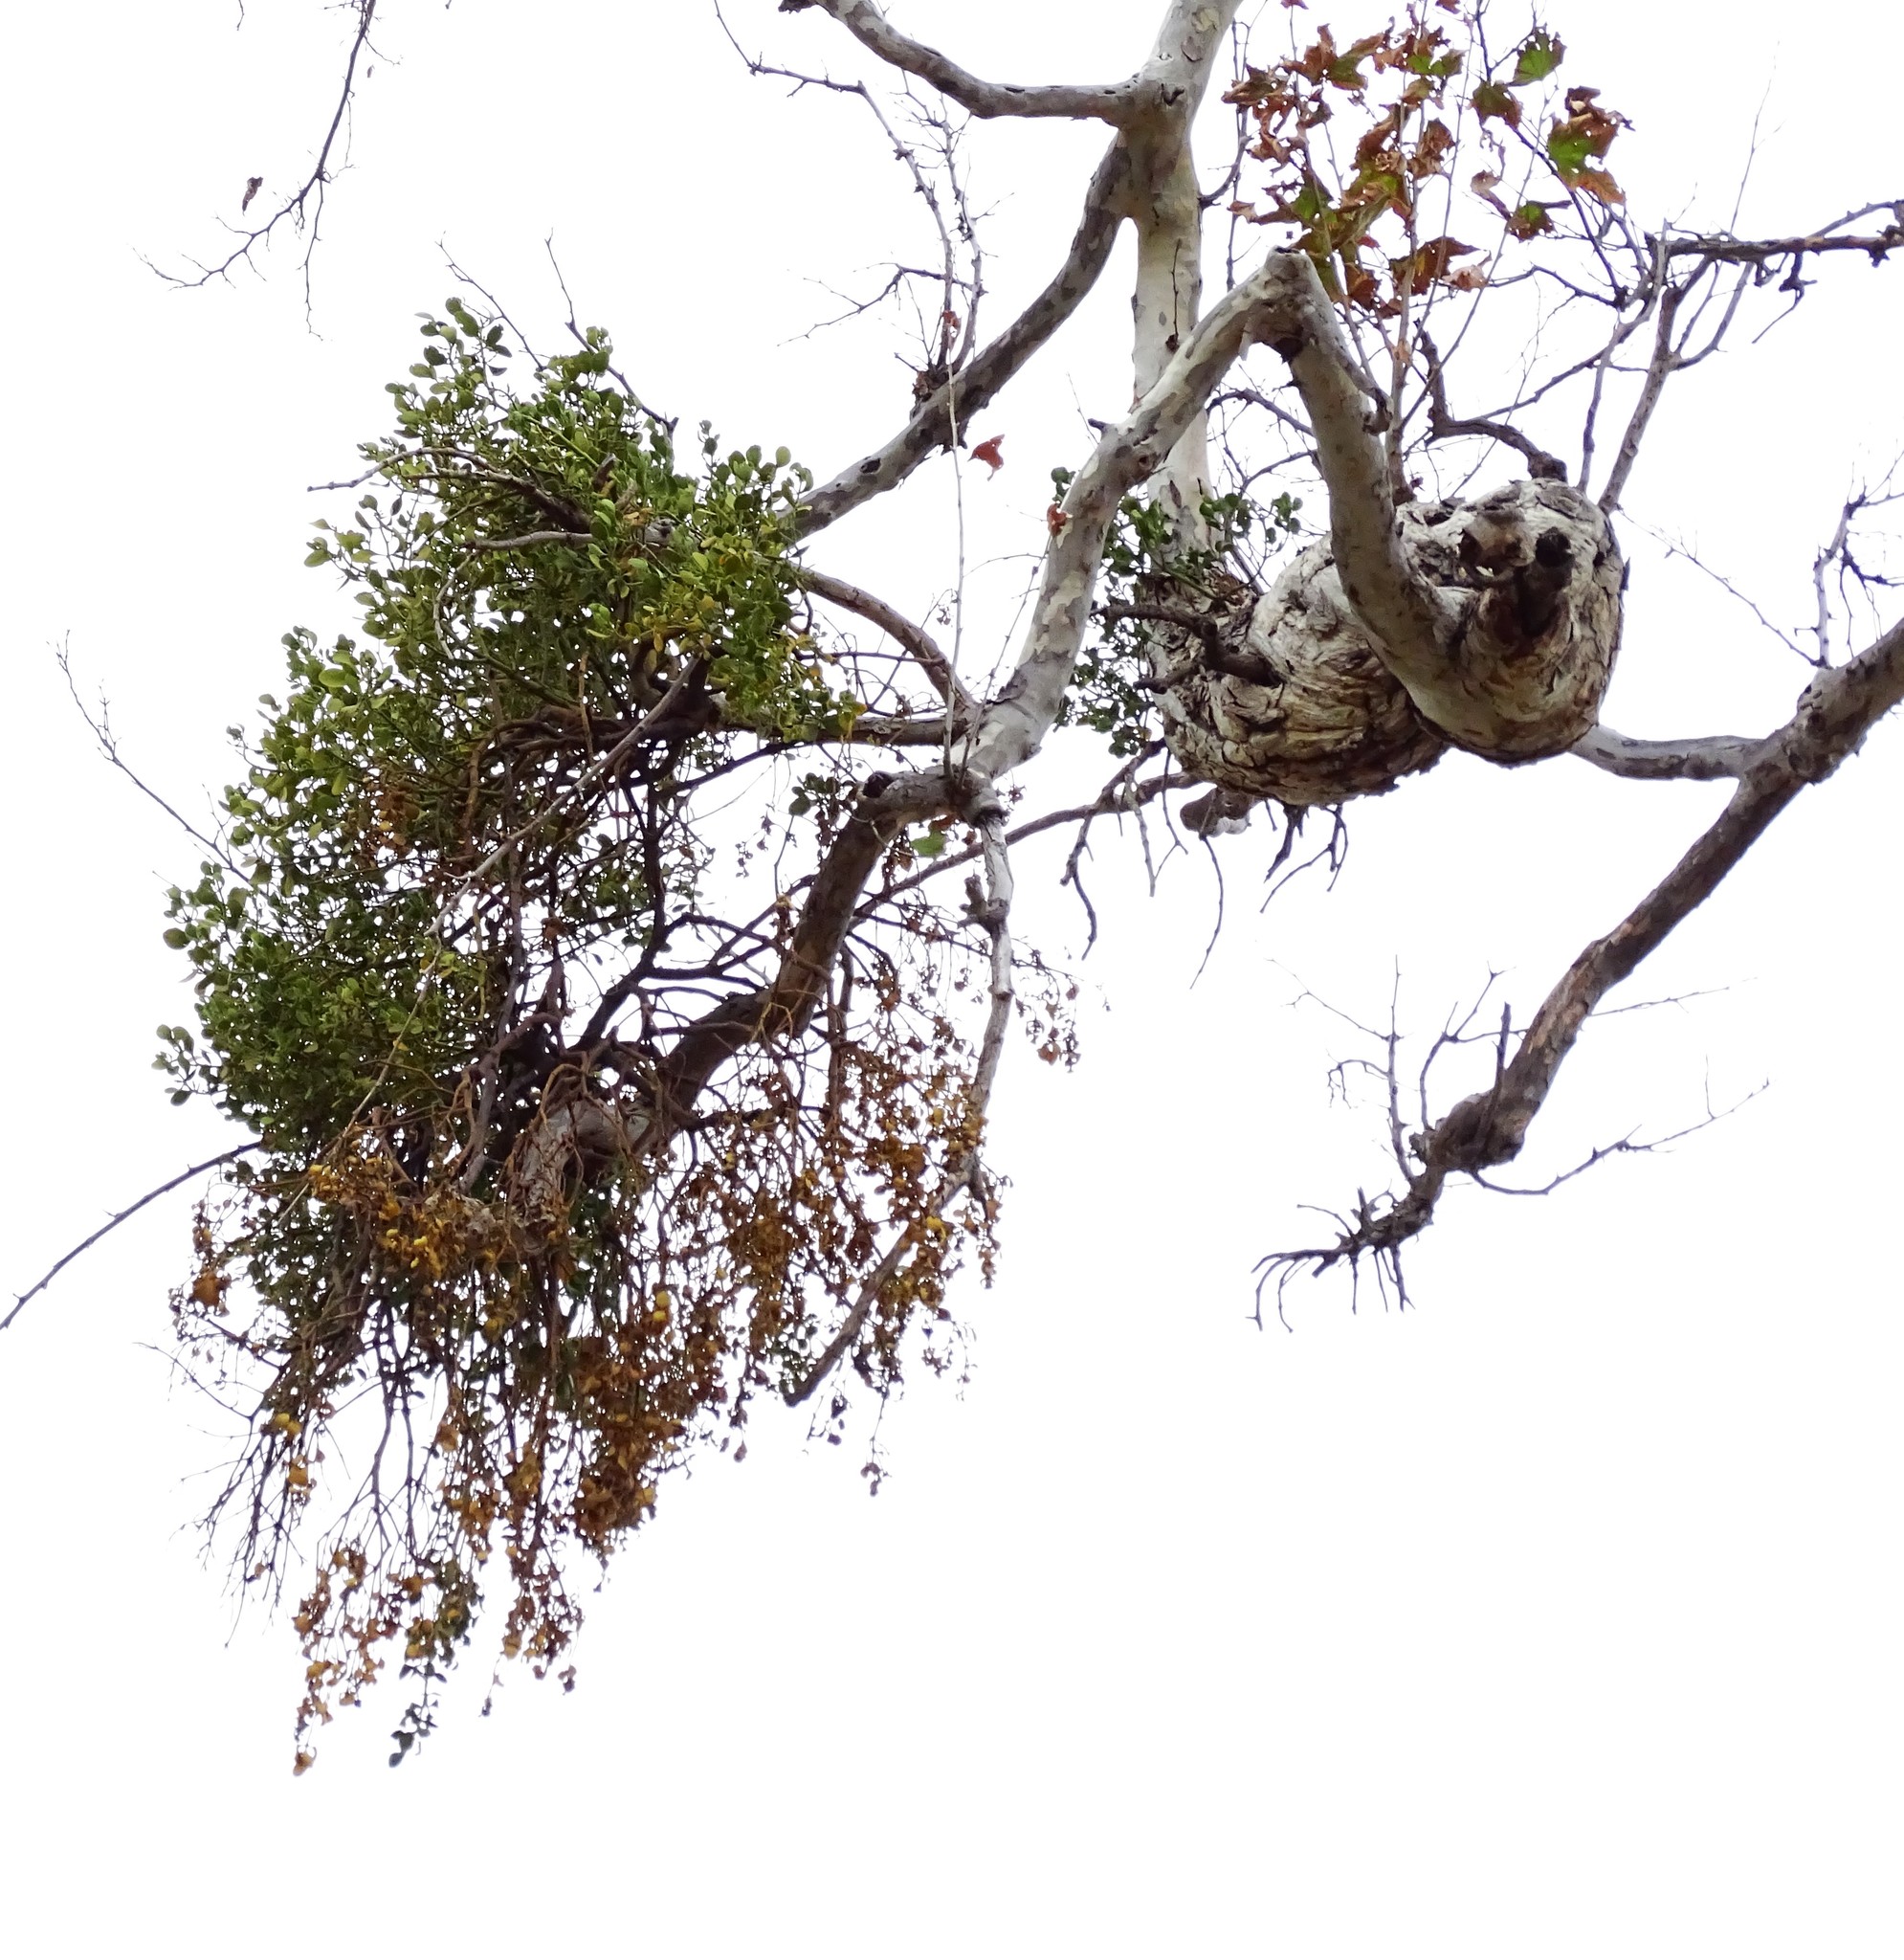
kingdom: Plantae
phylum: Tracheophyta
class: Magnoliopsida
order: Proteales
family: Platanaceae
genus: Platanus
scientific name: Platanus racemosa
